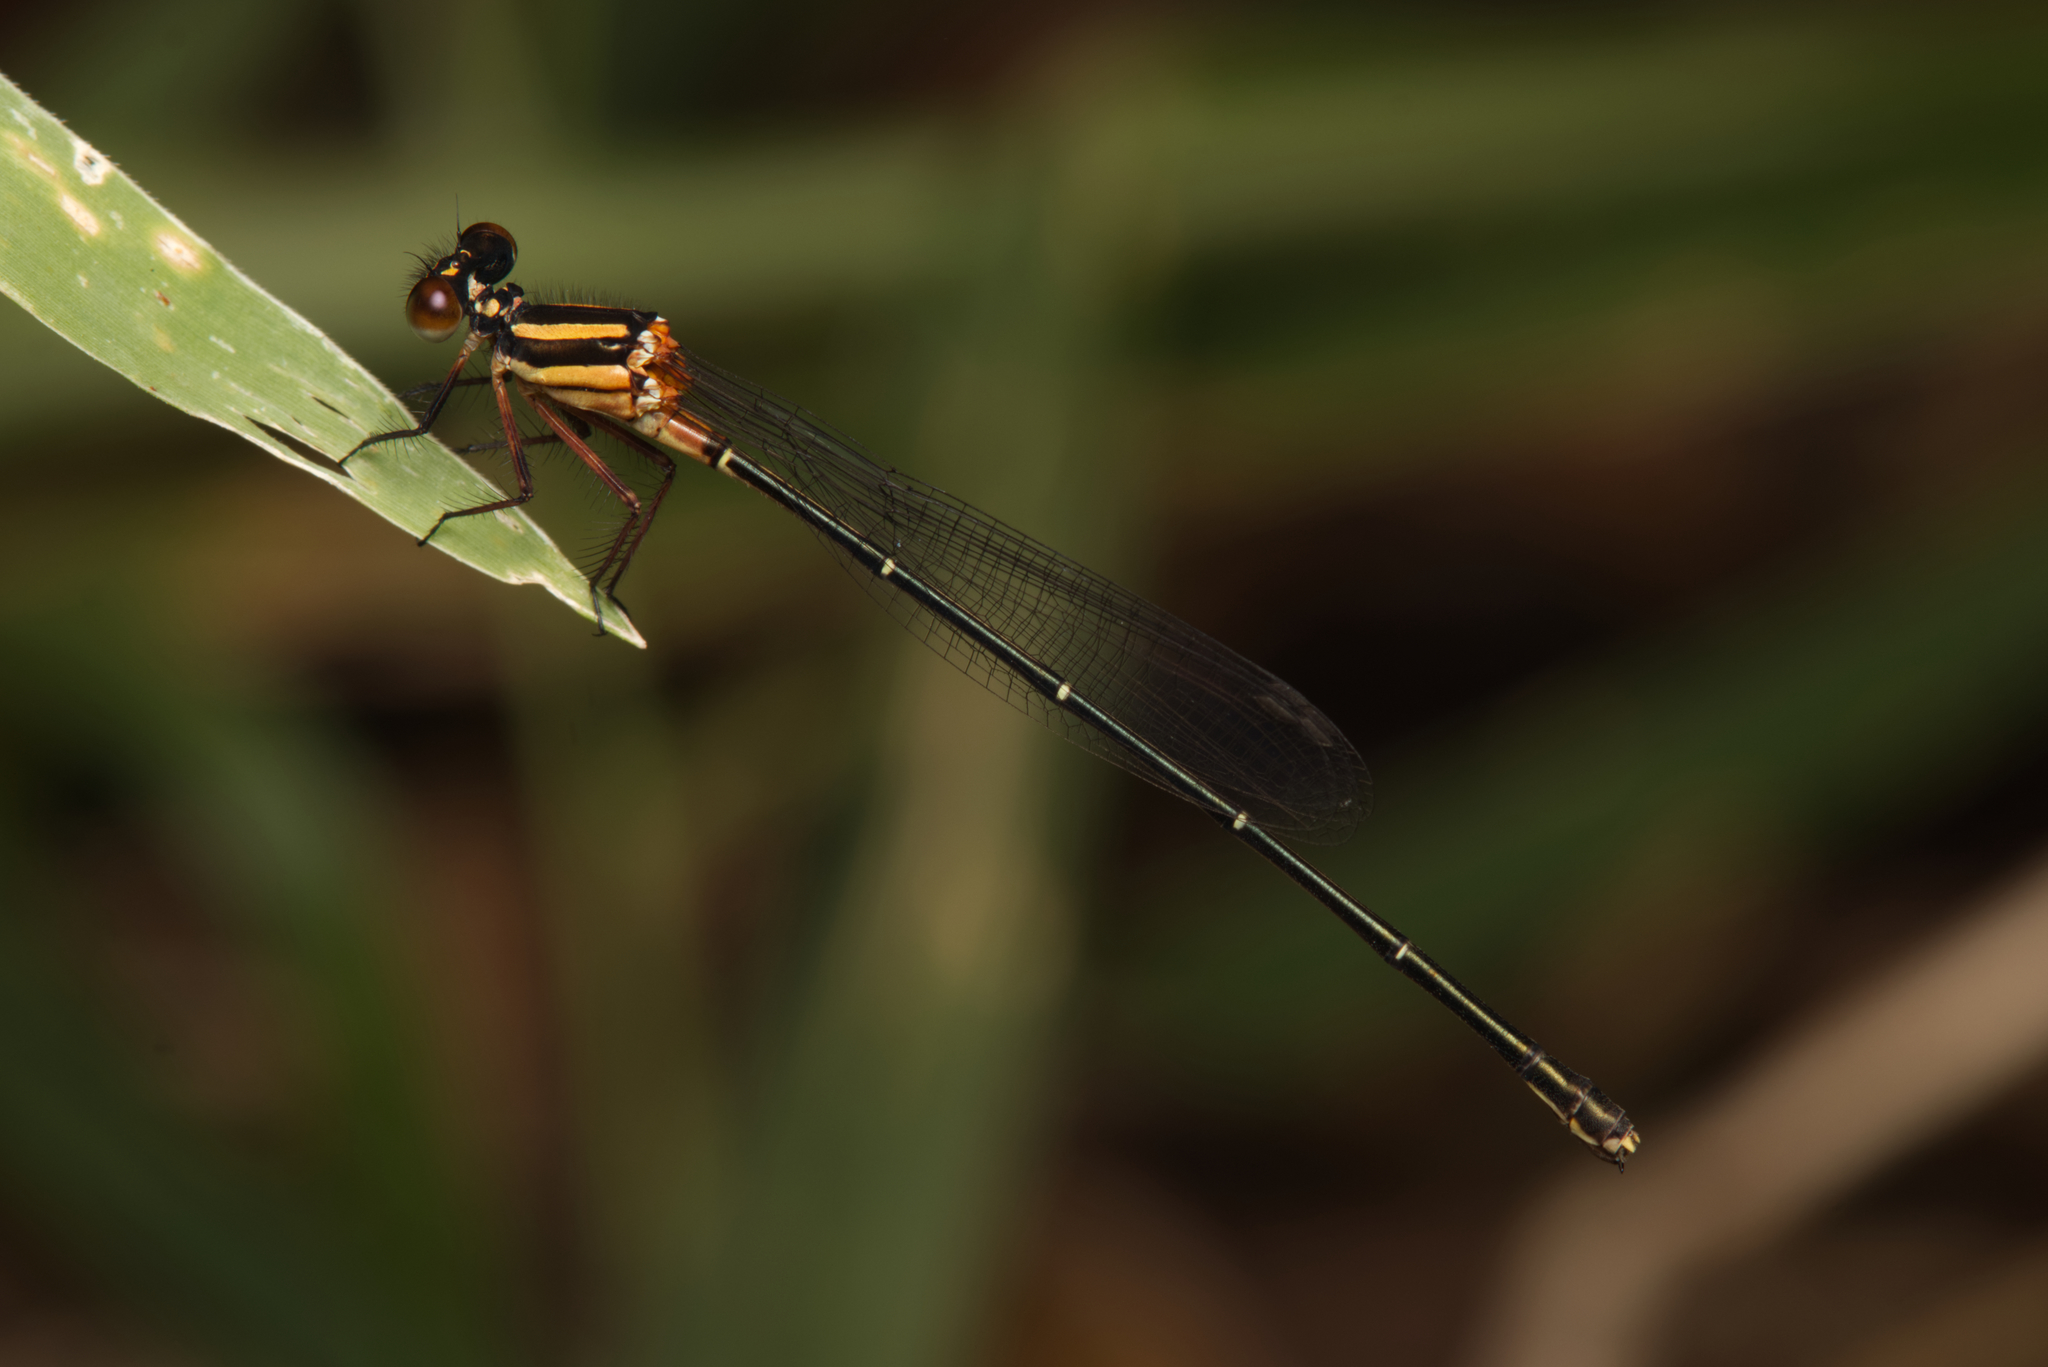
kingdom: Animalia
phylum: Arthropoda
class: Insecta
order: Odonata
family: Platycnemididae
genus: Nososticta
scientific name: Nososticta solida
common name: Orange threadtail
